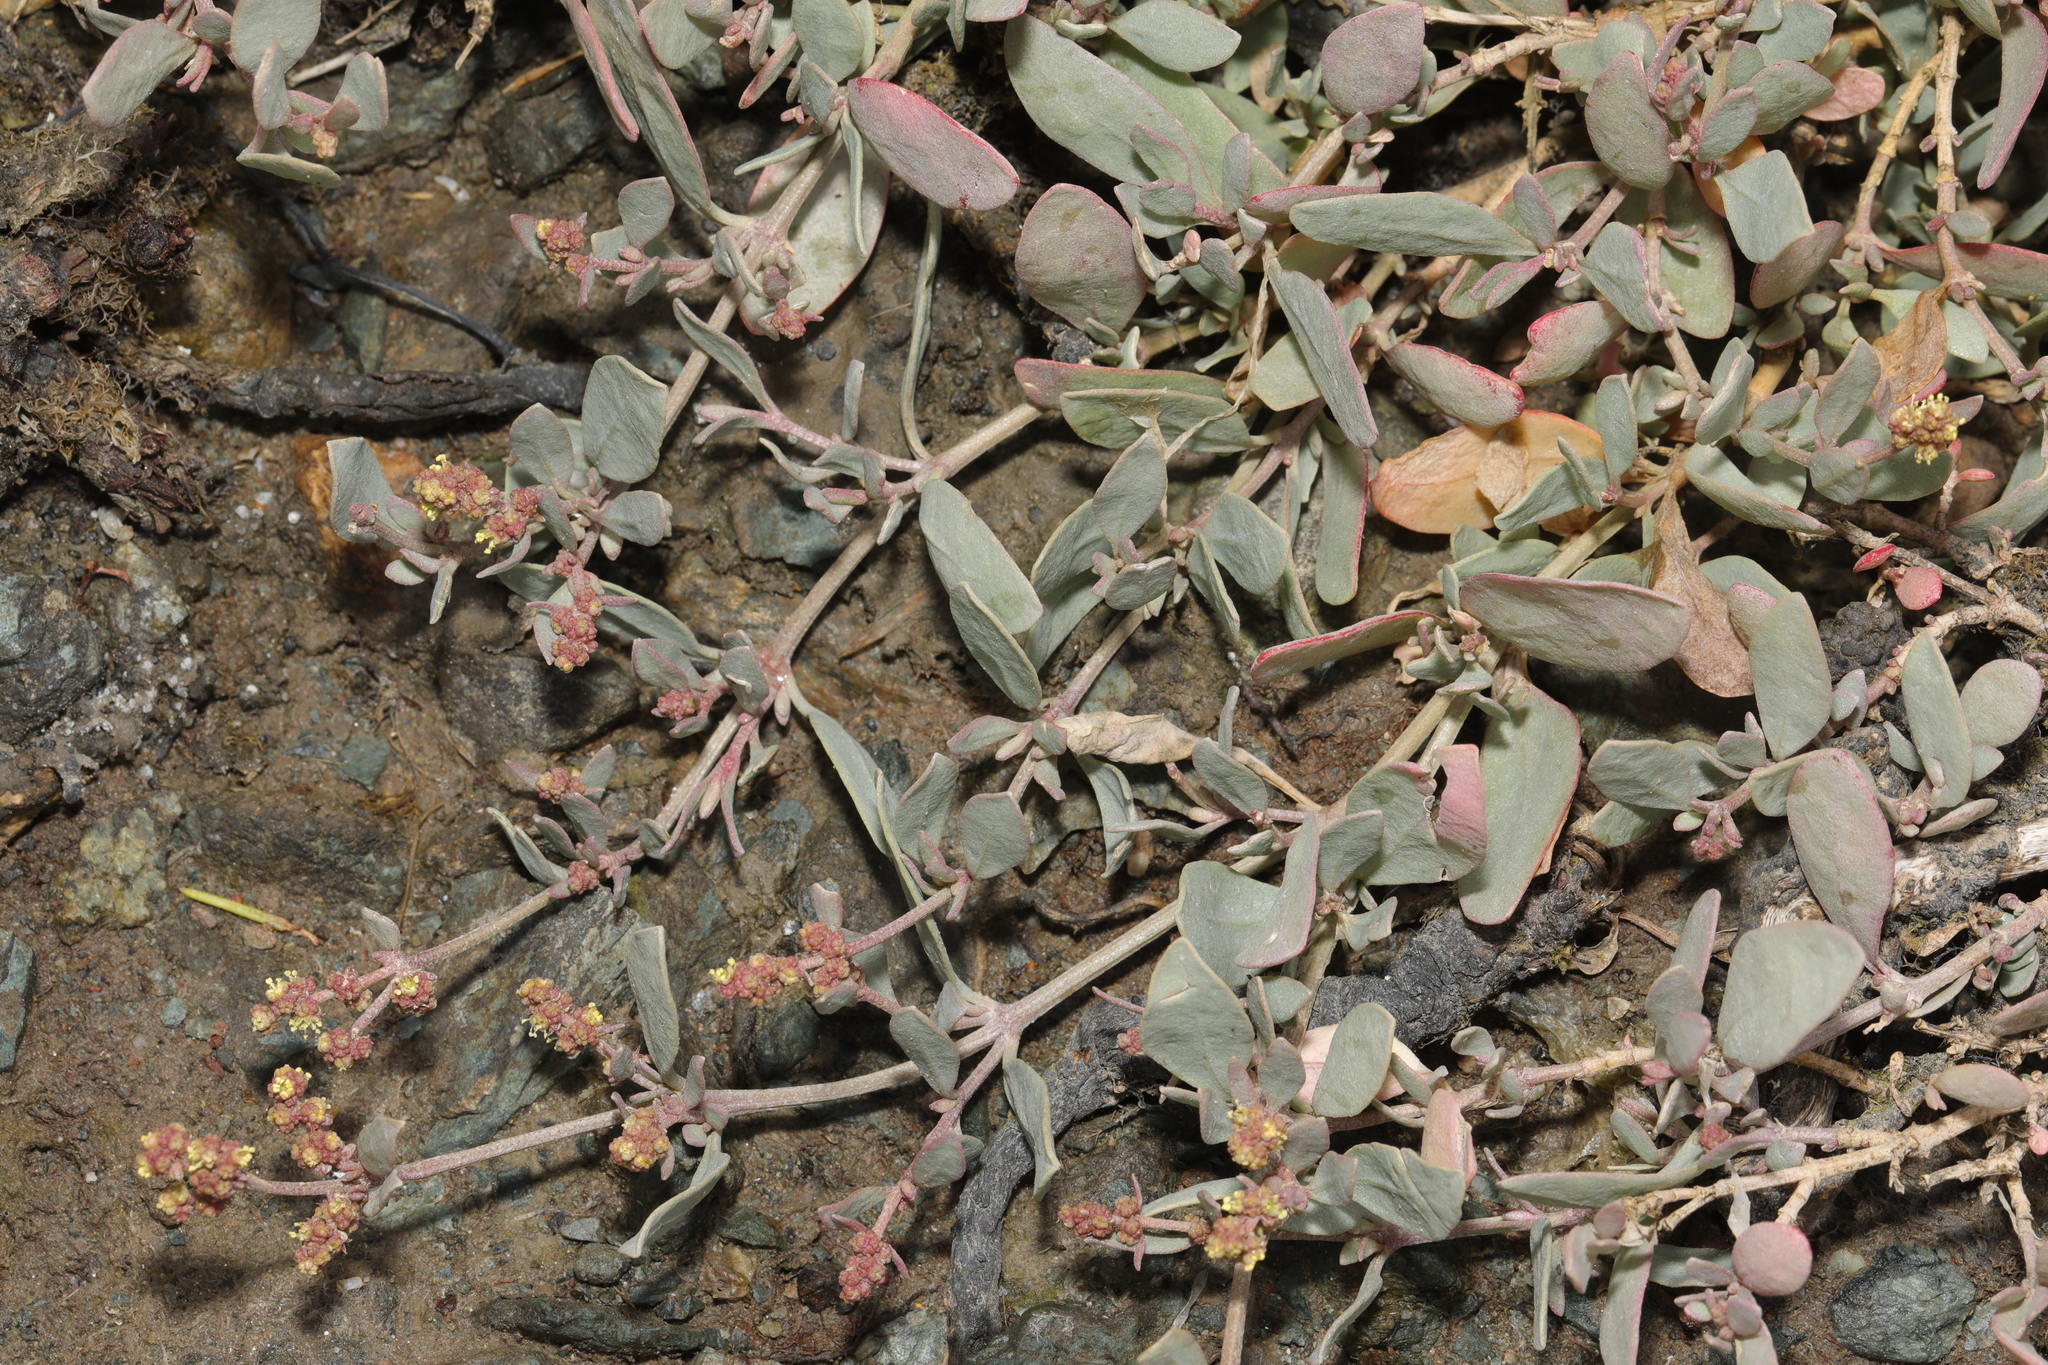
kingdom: Plantae
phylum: Tracheophyta
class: Magnoliopsida
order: Caryophyllales
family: Amaranthaceae
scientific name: Amaranthaceae
